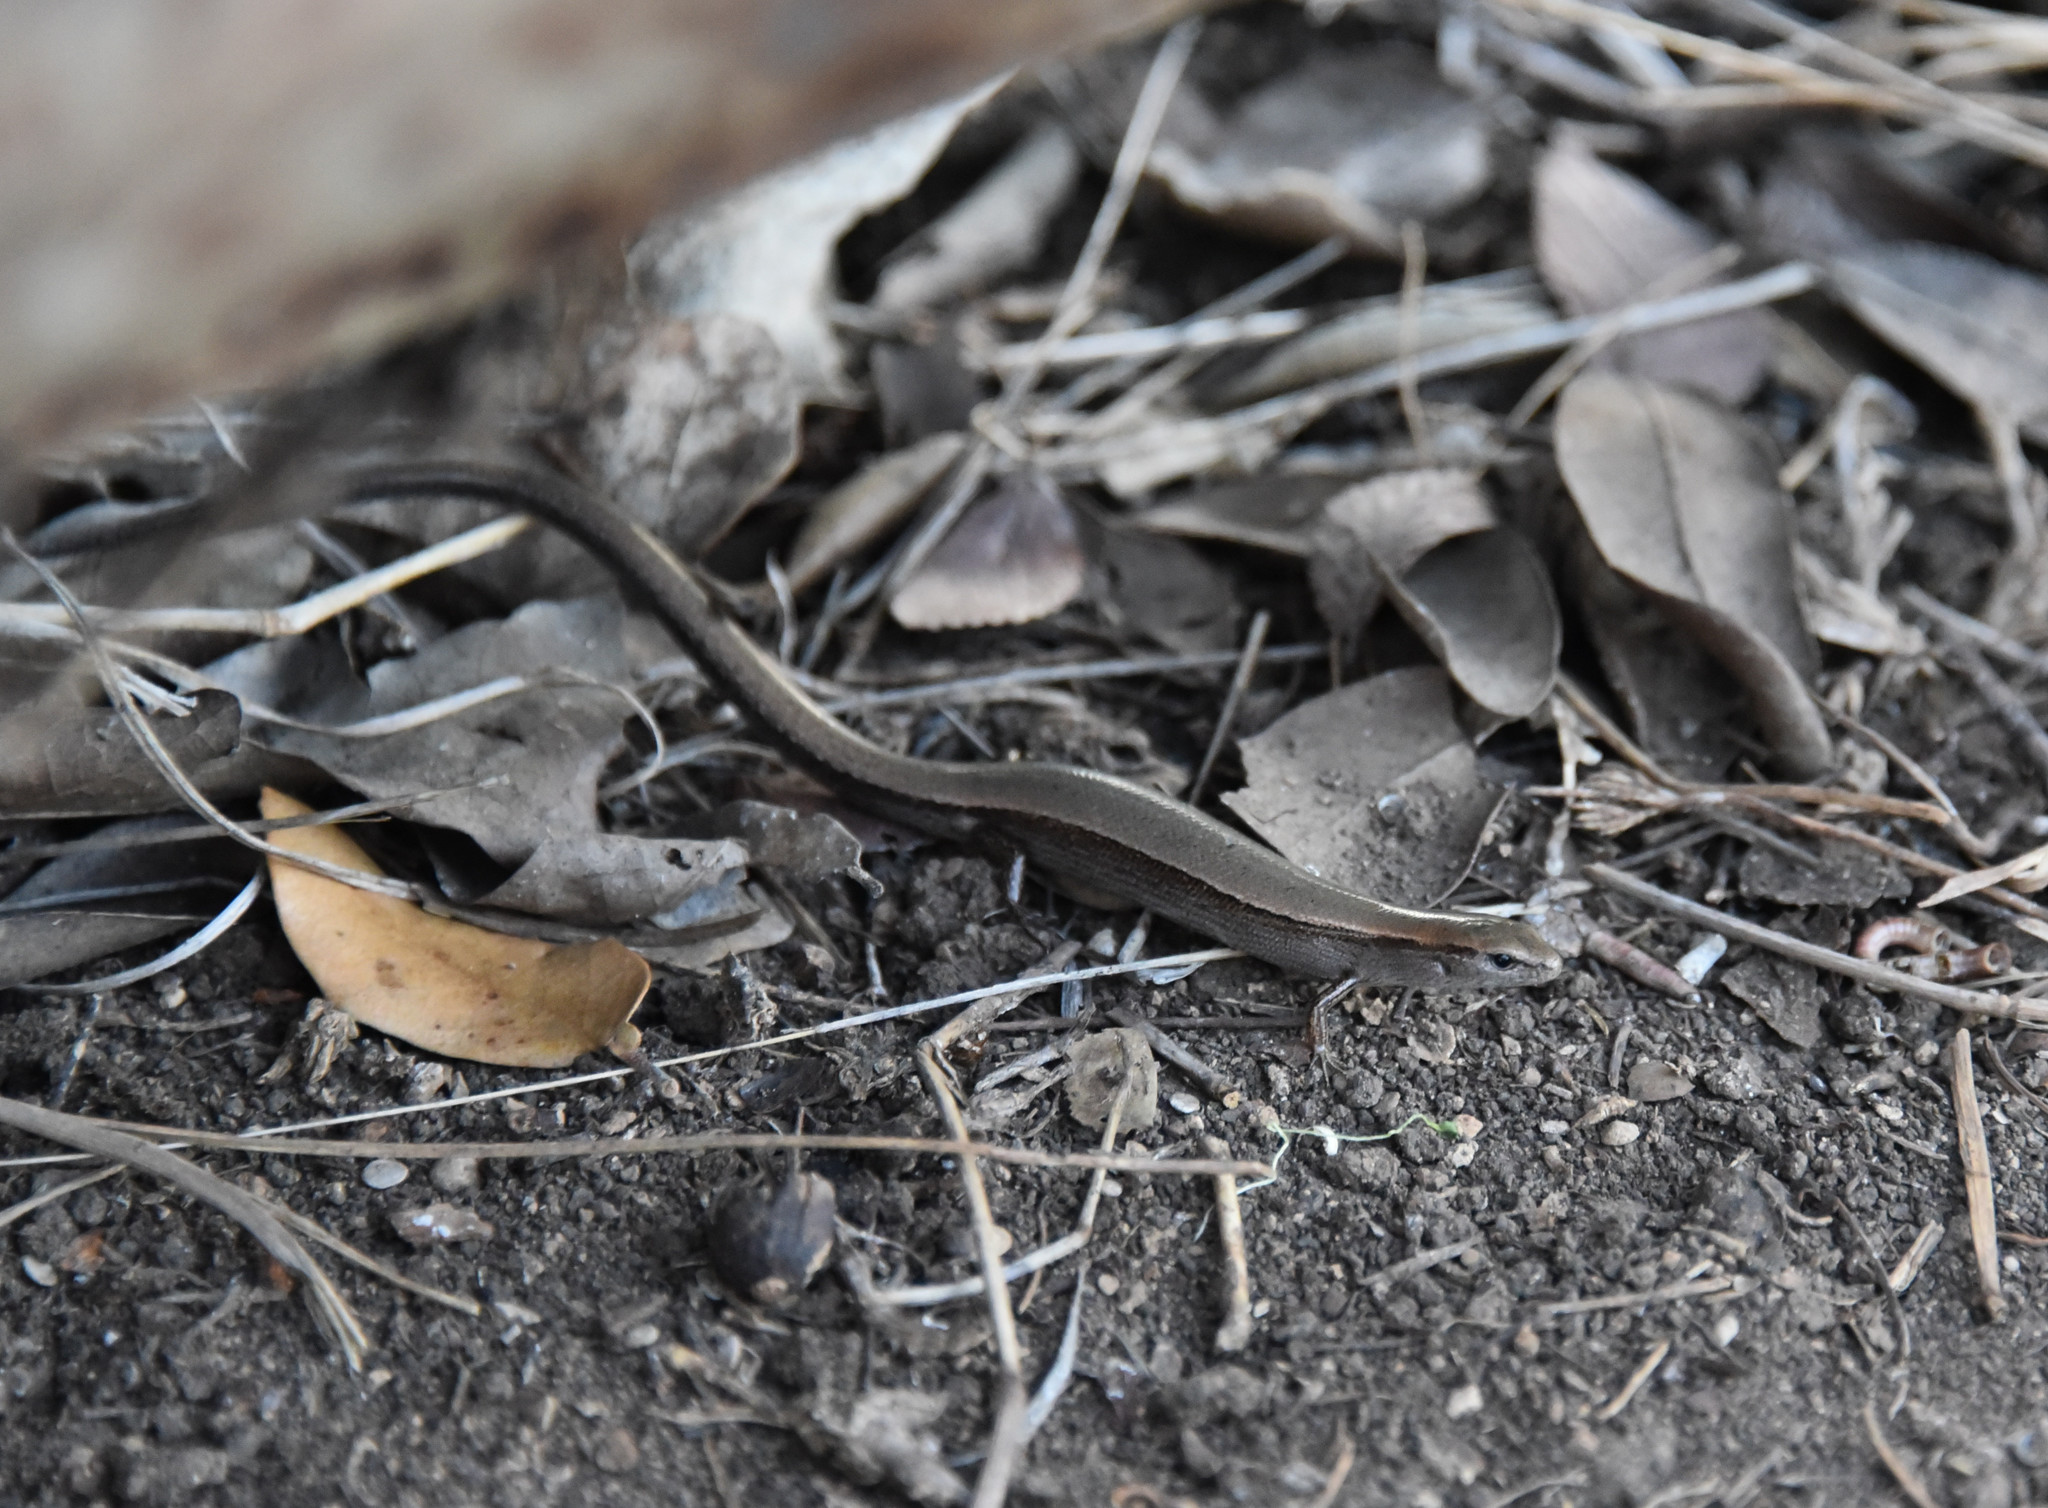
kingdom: Animalia
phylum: Chordata
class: Squamata
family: Scincidae
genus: Scincella
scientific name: Scincella lateralis
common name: Ground skink
